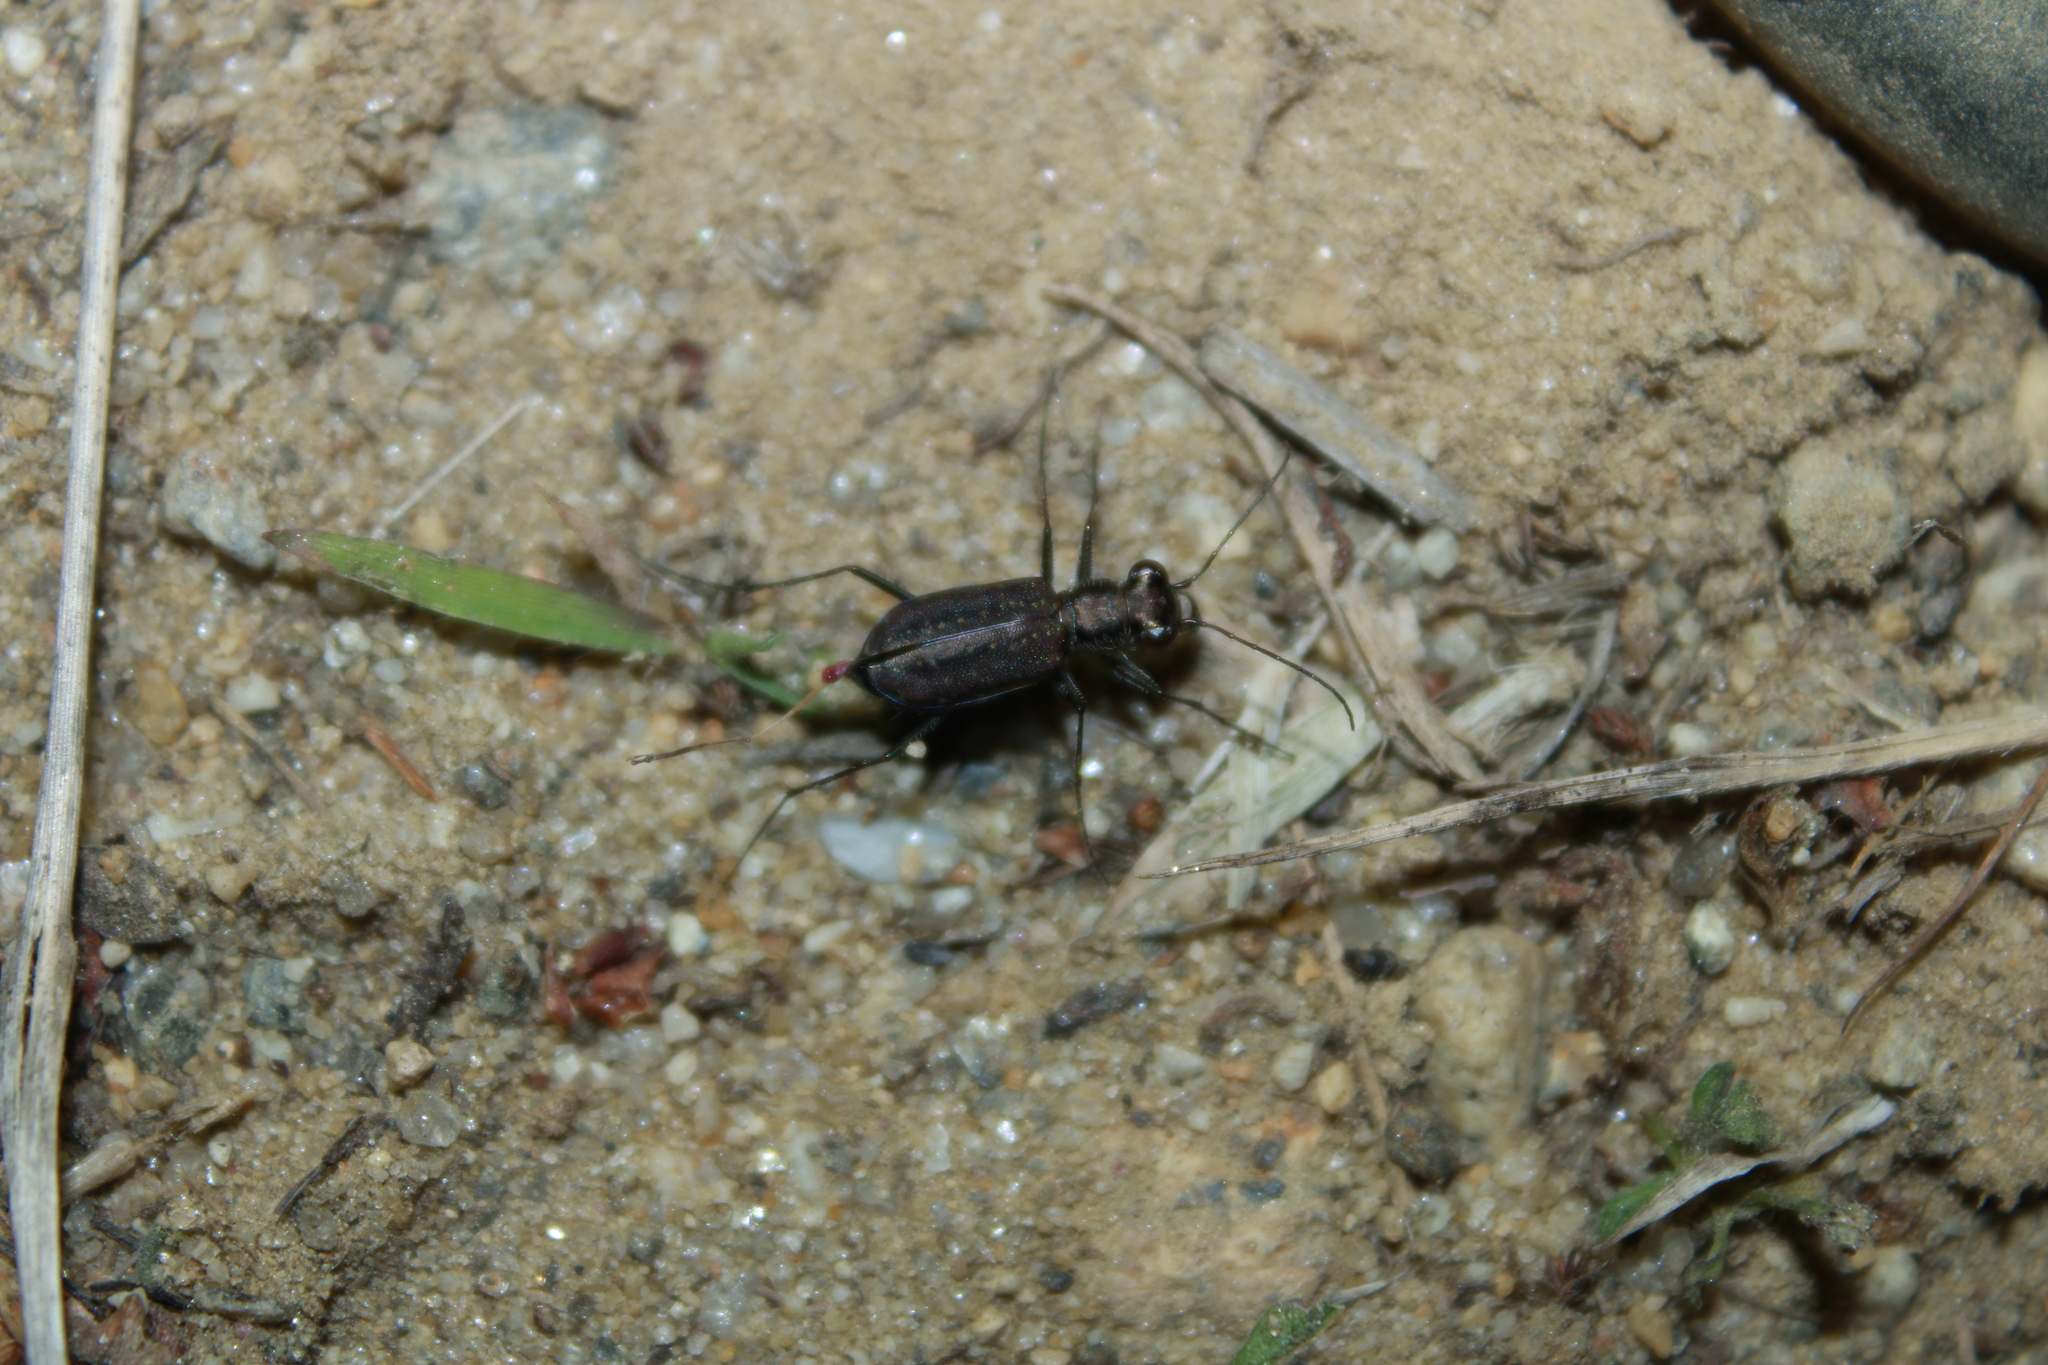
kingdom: Animalia
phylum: Arthropoda
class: Insecta
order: Coleoptera
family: Carabidae
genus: Cicindela
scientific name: Cicindela punctulata
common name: Punctured tiger beetle
